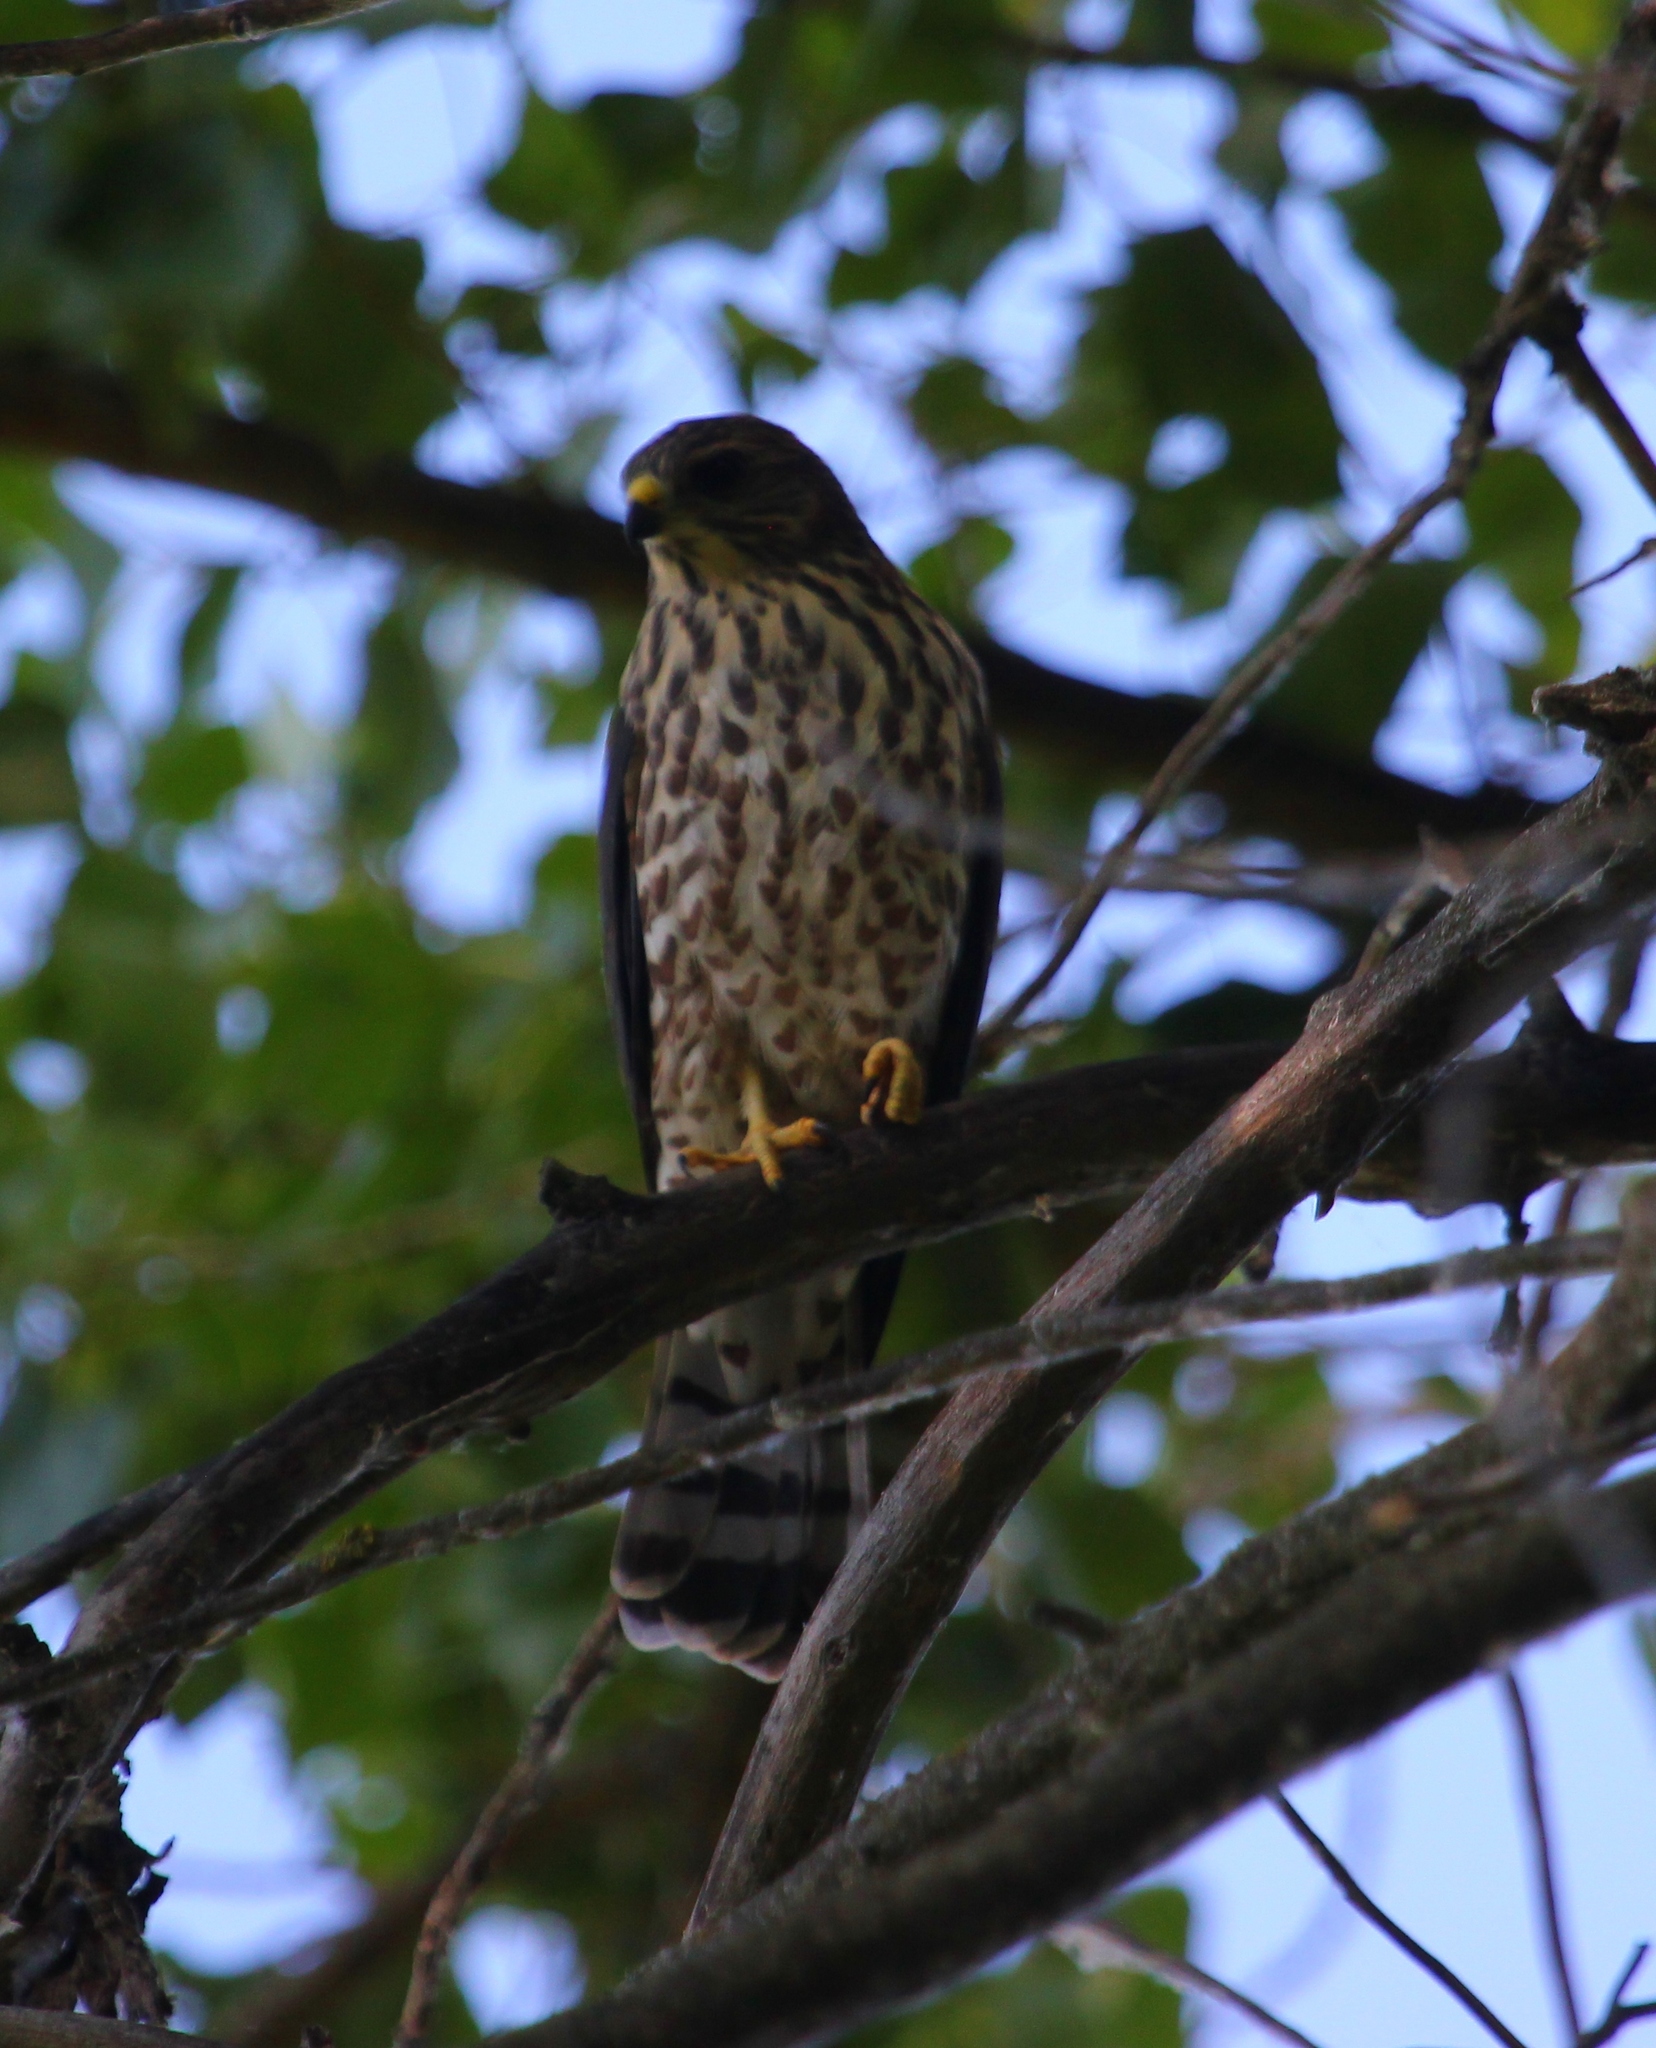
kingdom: Animalia
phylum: Chordata
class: Aves
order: Accipitriformes
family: Accipitridae
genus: Accipiter
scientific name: Accipiter brevipes
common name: Levant sparrowhawk
